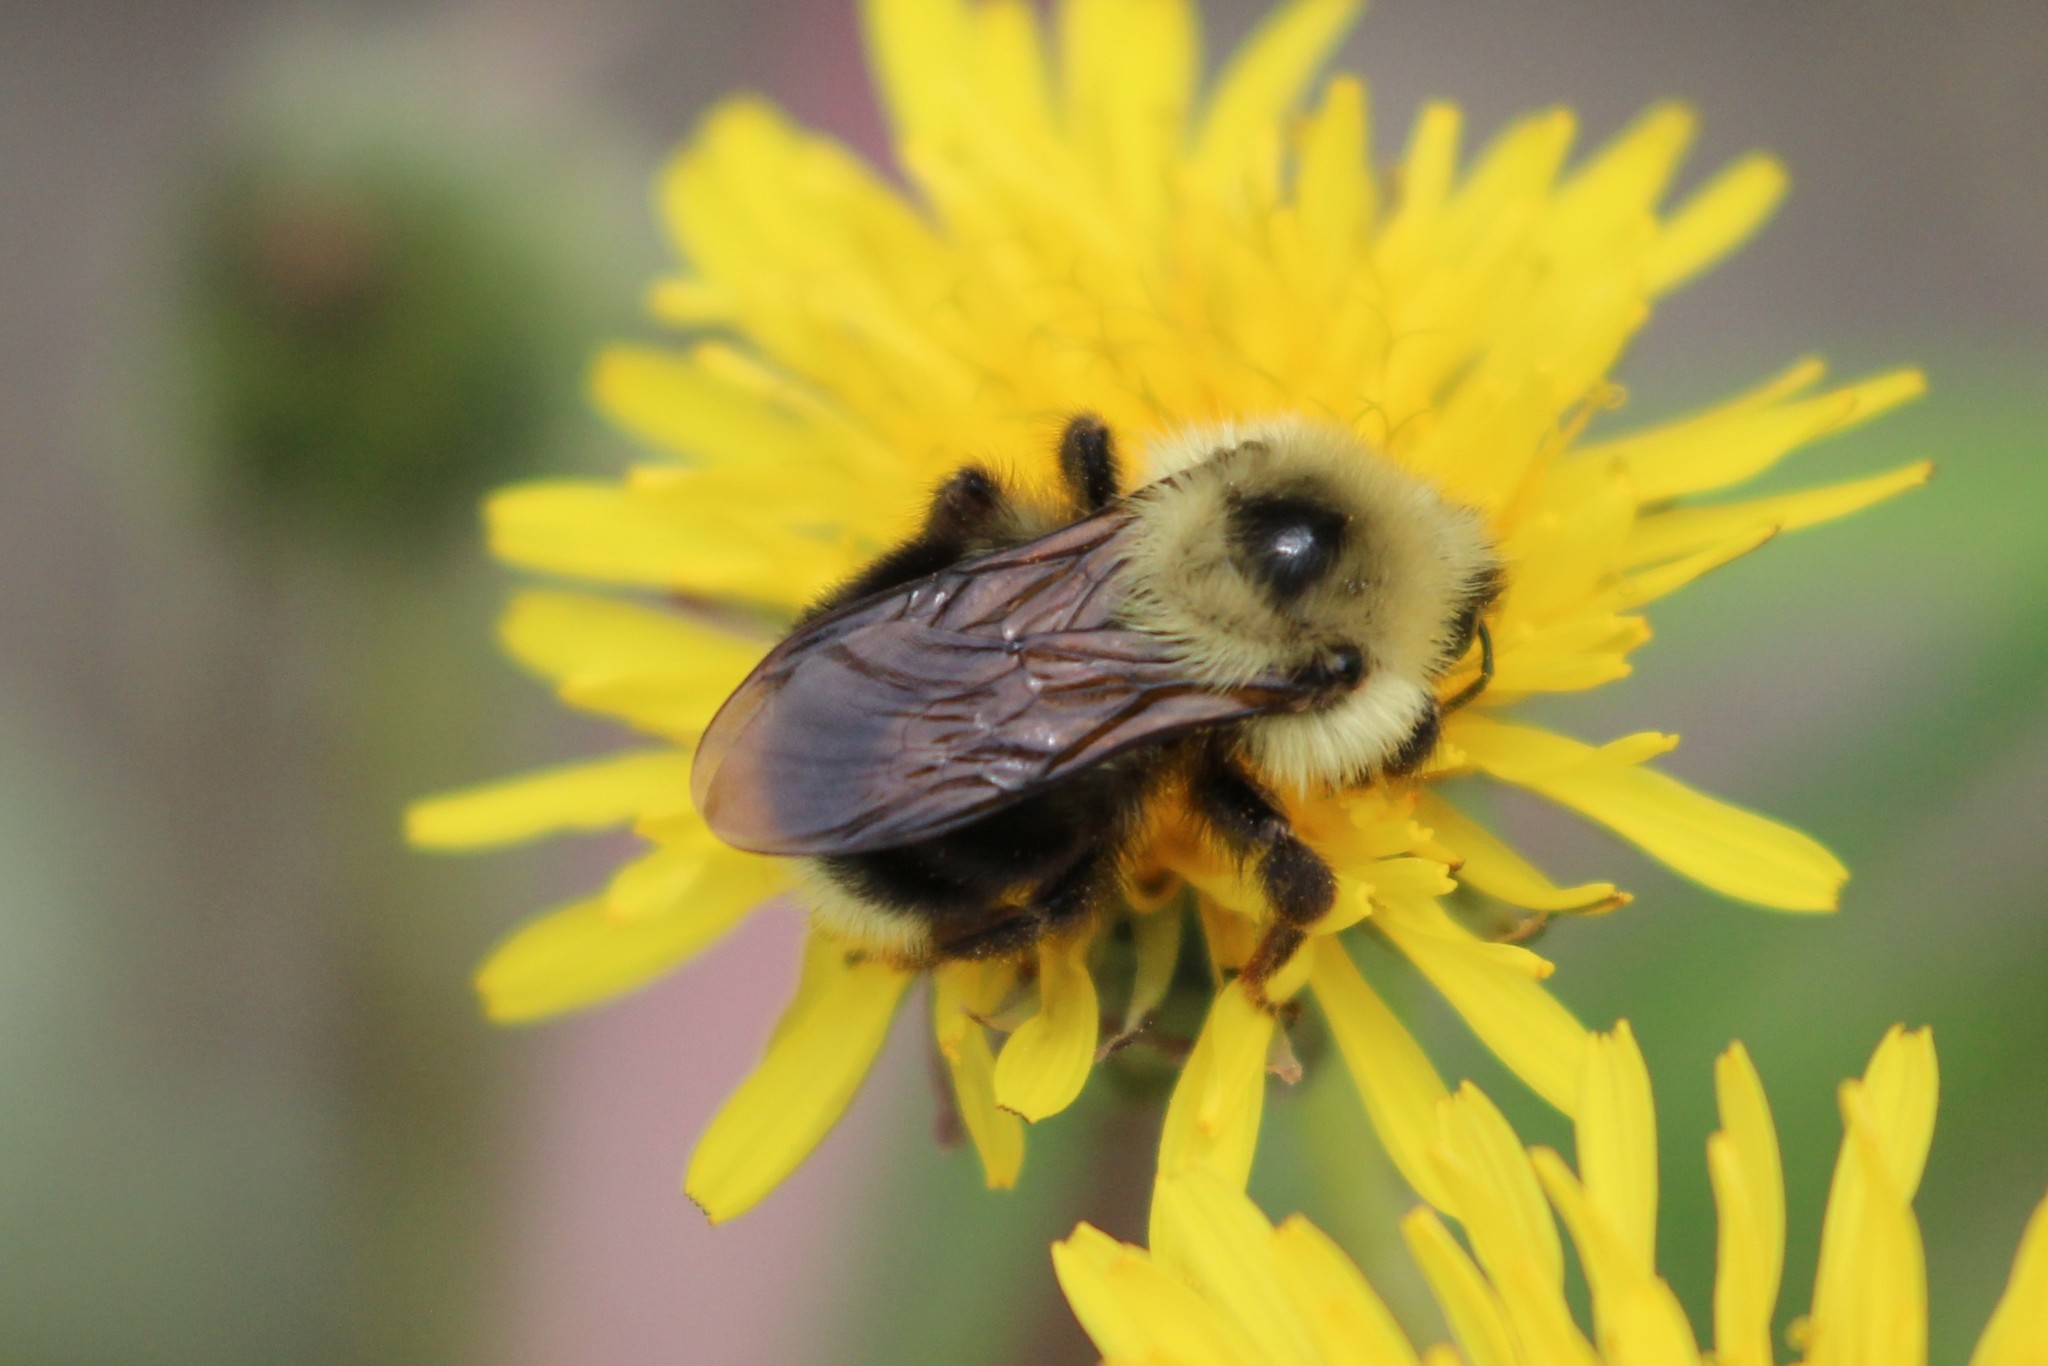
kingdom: Animalia
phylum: Arthropoda
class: Insecta
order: Hymenoptera
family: Apidae
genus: Bombus
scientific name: Bombus flavidus
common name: Fernald cuckoo bumble bee
